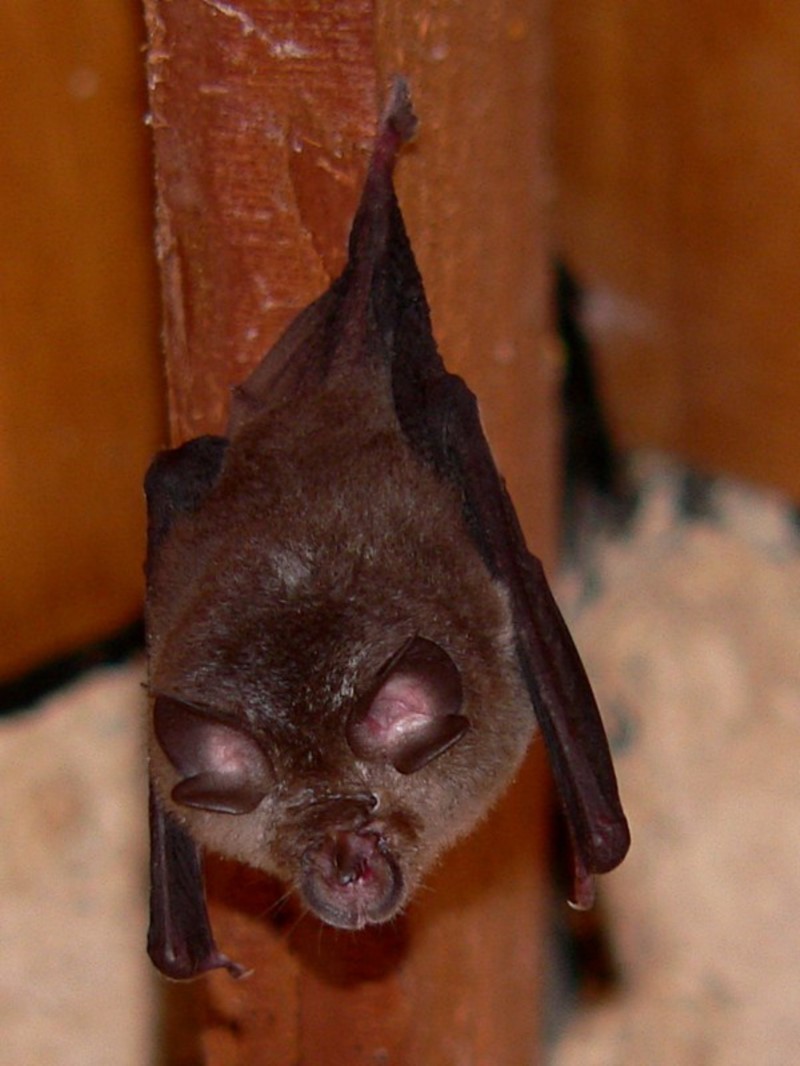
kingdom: Animalia
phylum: Chordata
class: Mammalia
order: Chiroptera
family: Rhinolophidae
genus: Rhinolophus
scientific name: Rhinolophus megaphyllus
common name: Smaller horseshoe bat
